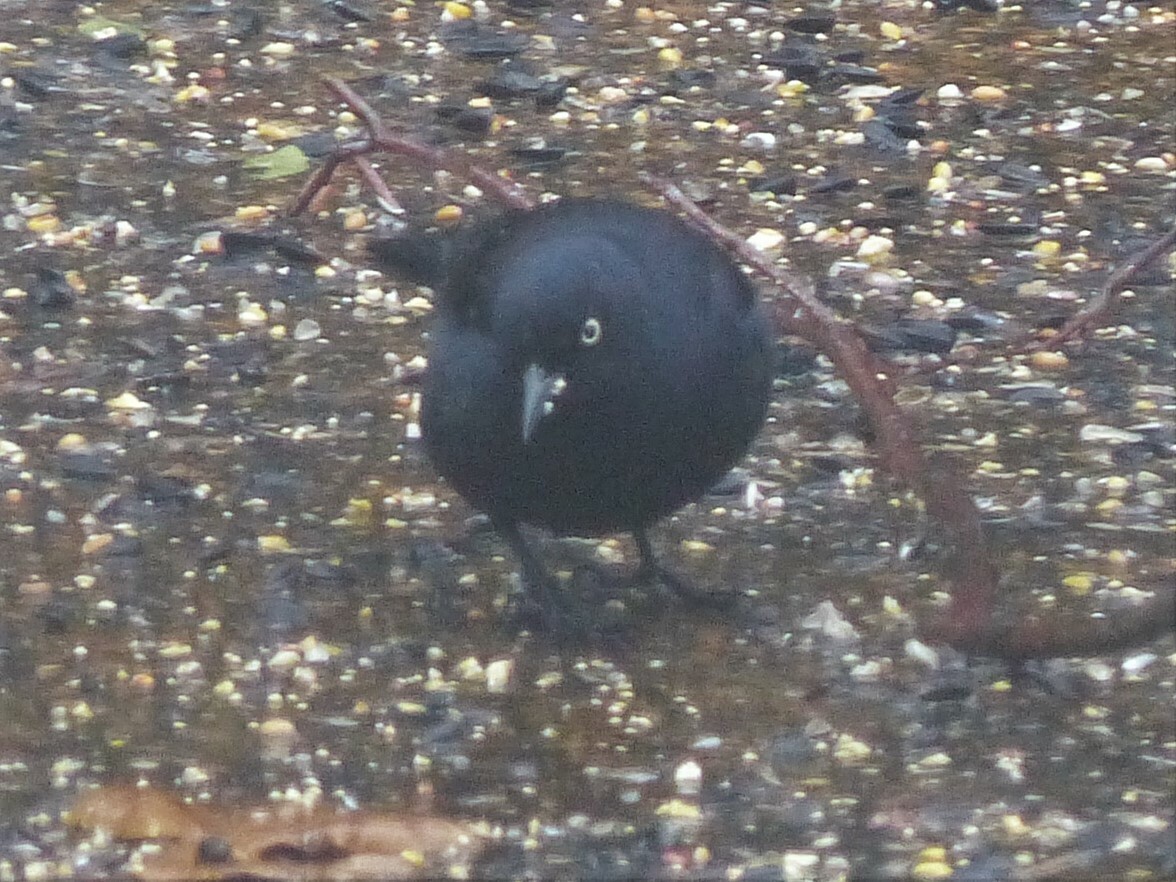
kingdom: Animalia
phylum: Chordata
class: Aves
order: Passeriformes
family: Icteridae
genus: Euphagus
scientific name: Euphagus carolinus
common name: Rusty blackbird
